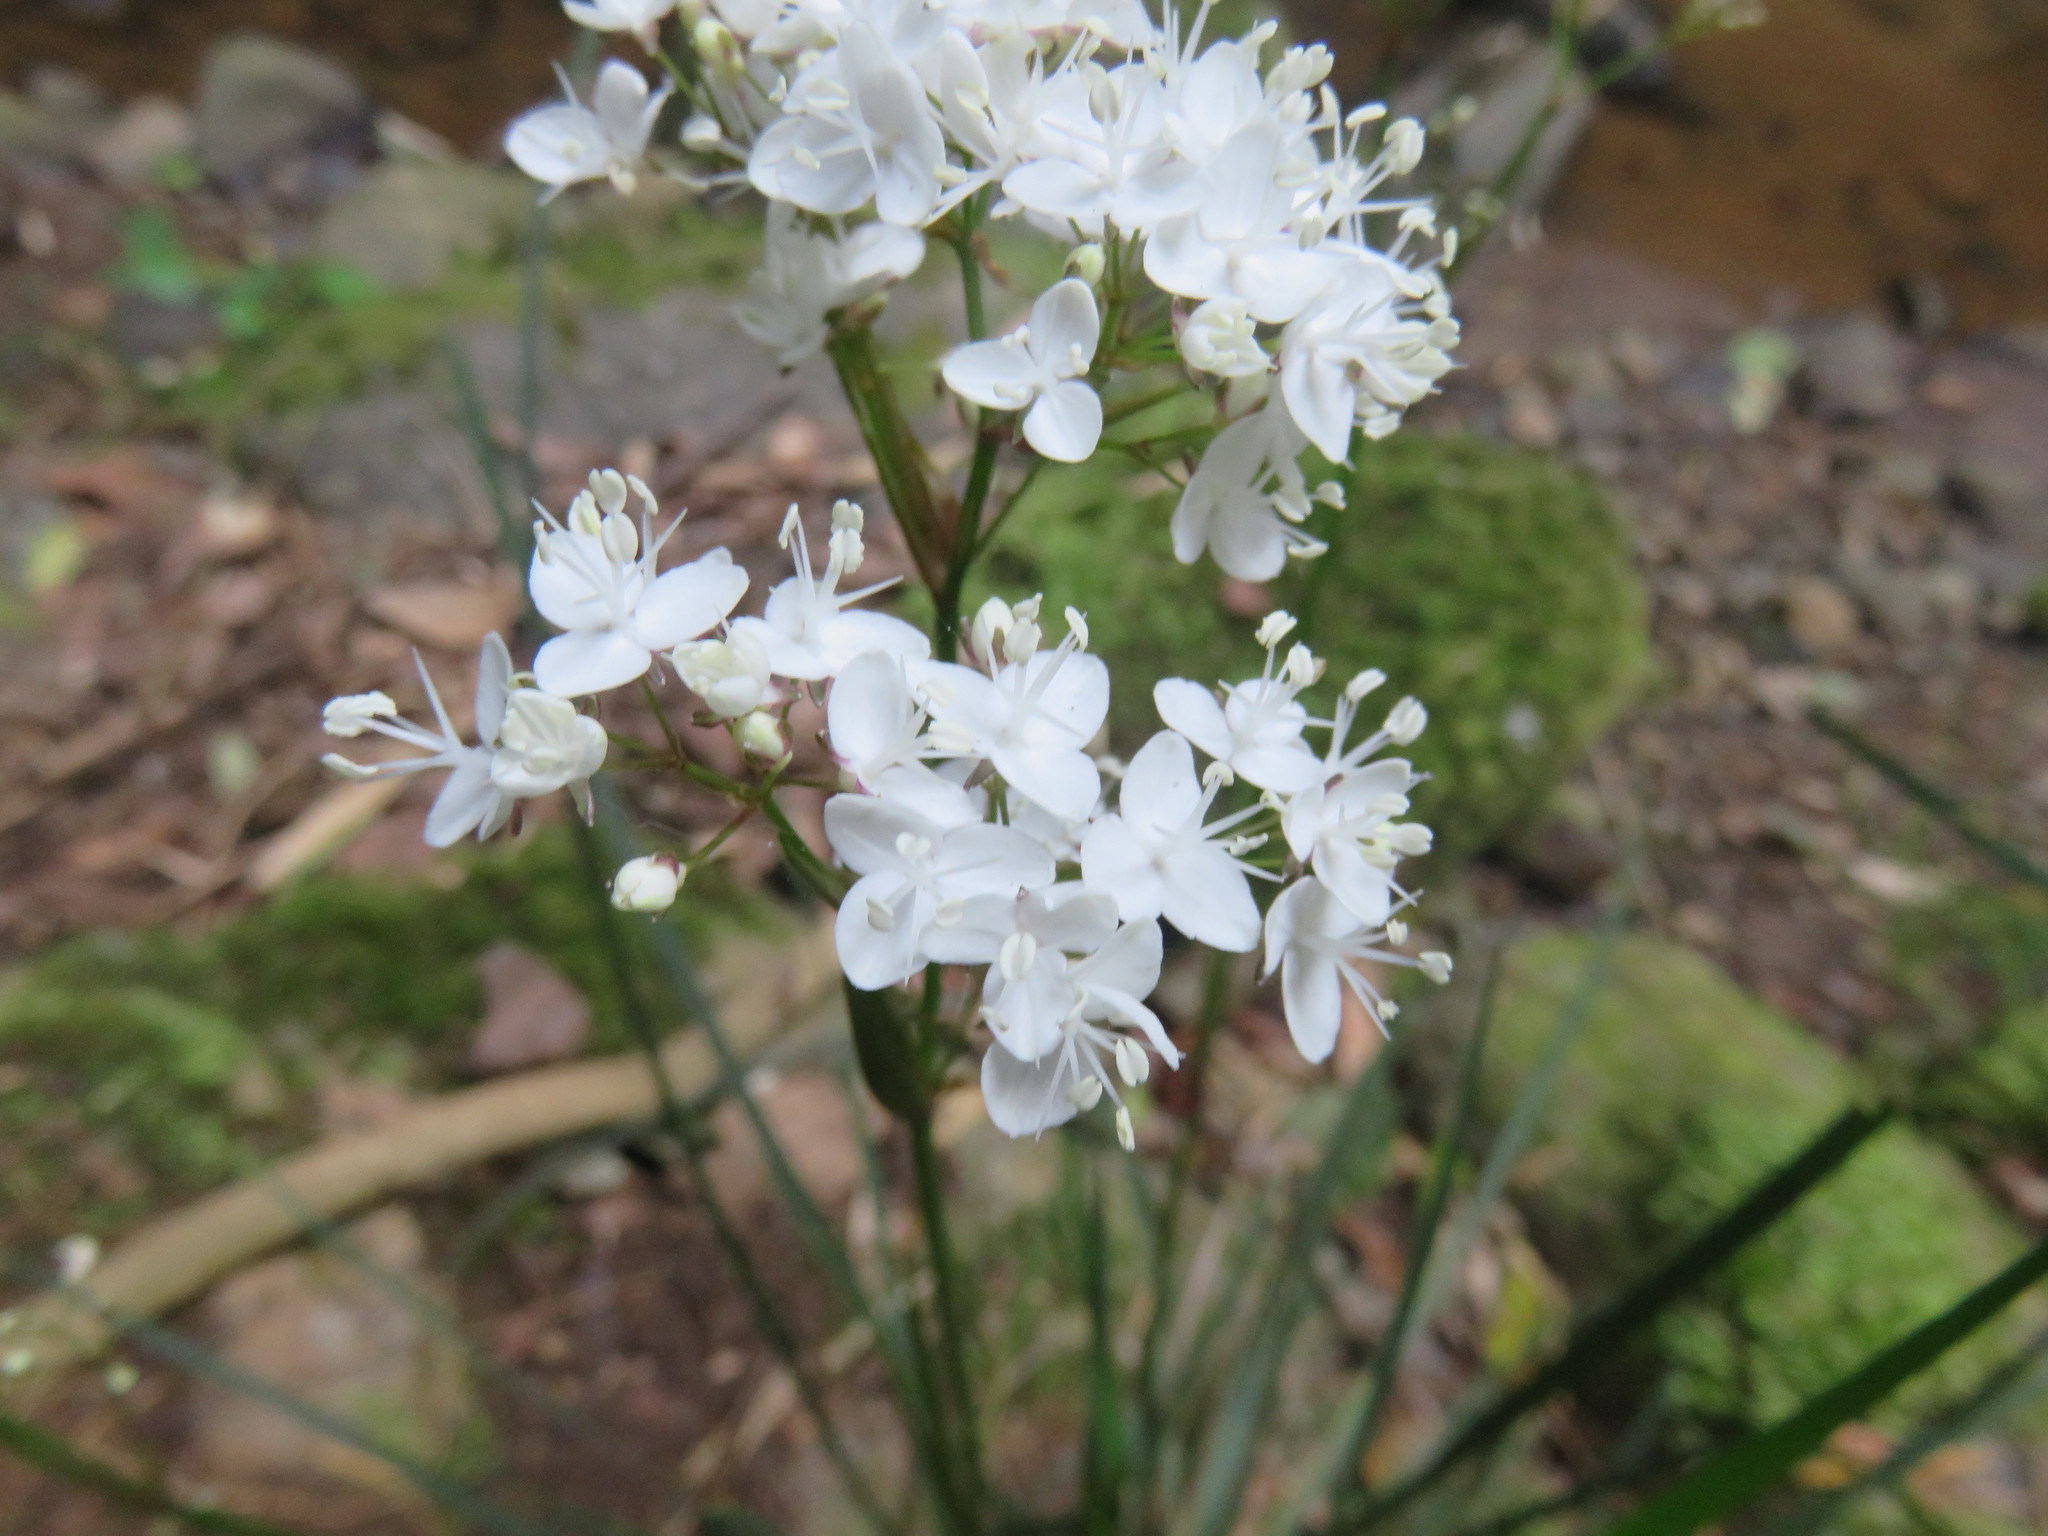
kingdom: Plantae
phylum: Tracheophyta
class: Liliopsida
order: Asparagales
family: Iridaceae
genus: Libertia
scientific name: Libertia tricocca
